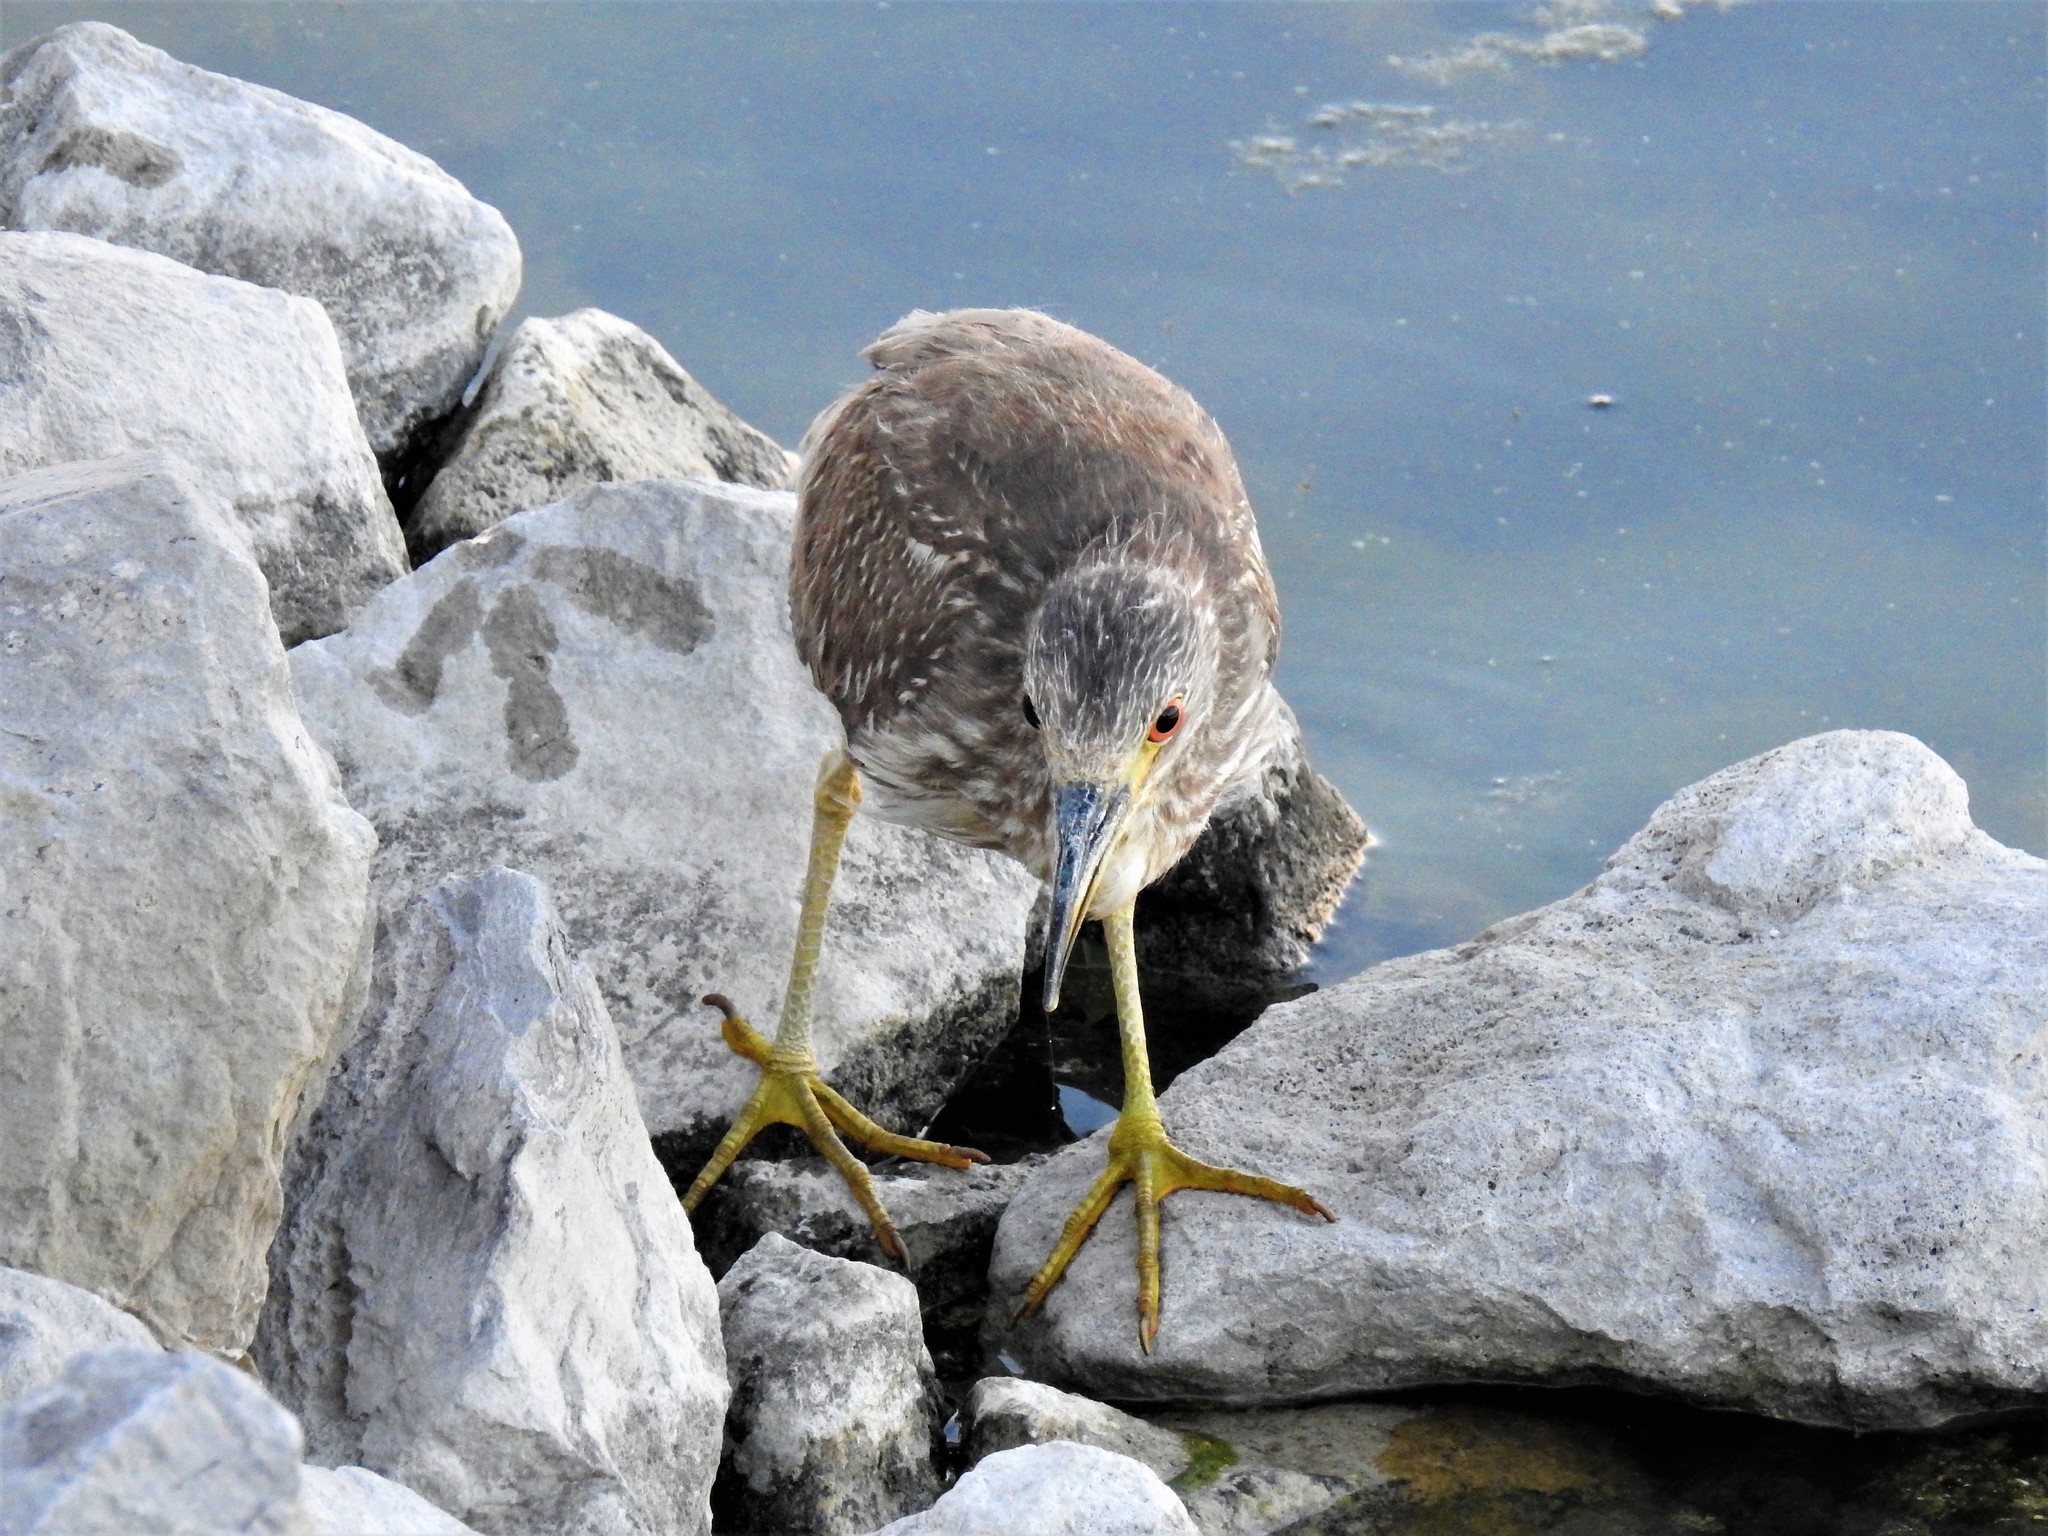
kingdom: Animalia
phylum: Chordata
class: Aves
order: Pelecaniformes
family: Ardeidae
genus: Nycticorax
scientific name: Nycticorax nycticorax
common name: Black-crowned night heron
